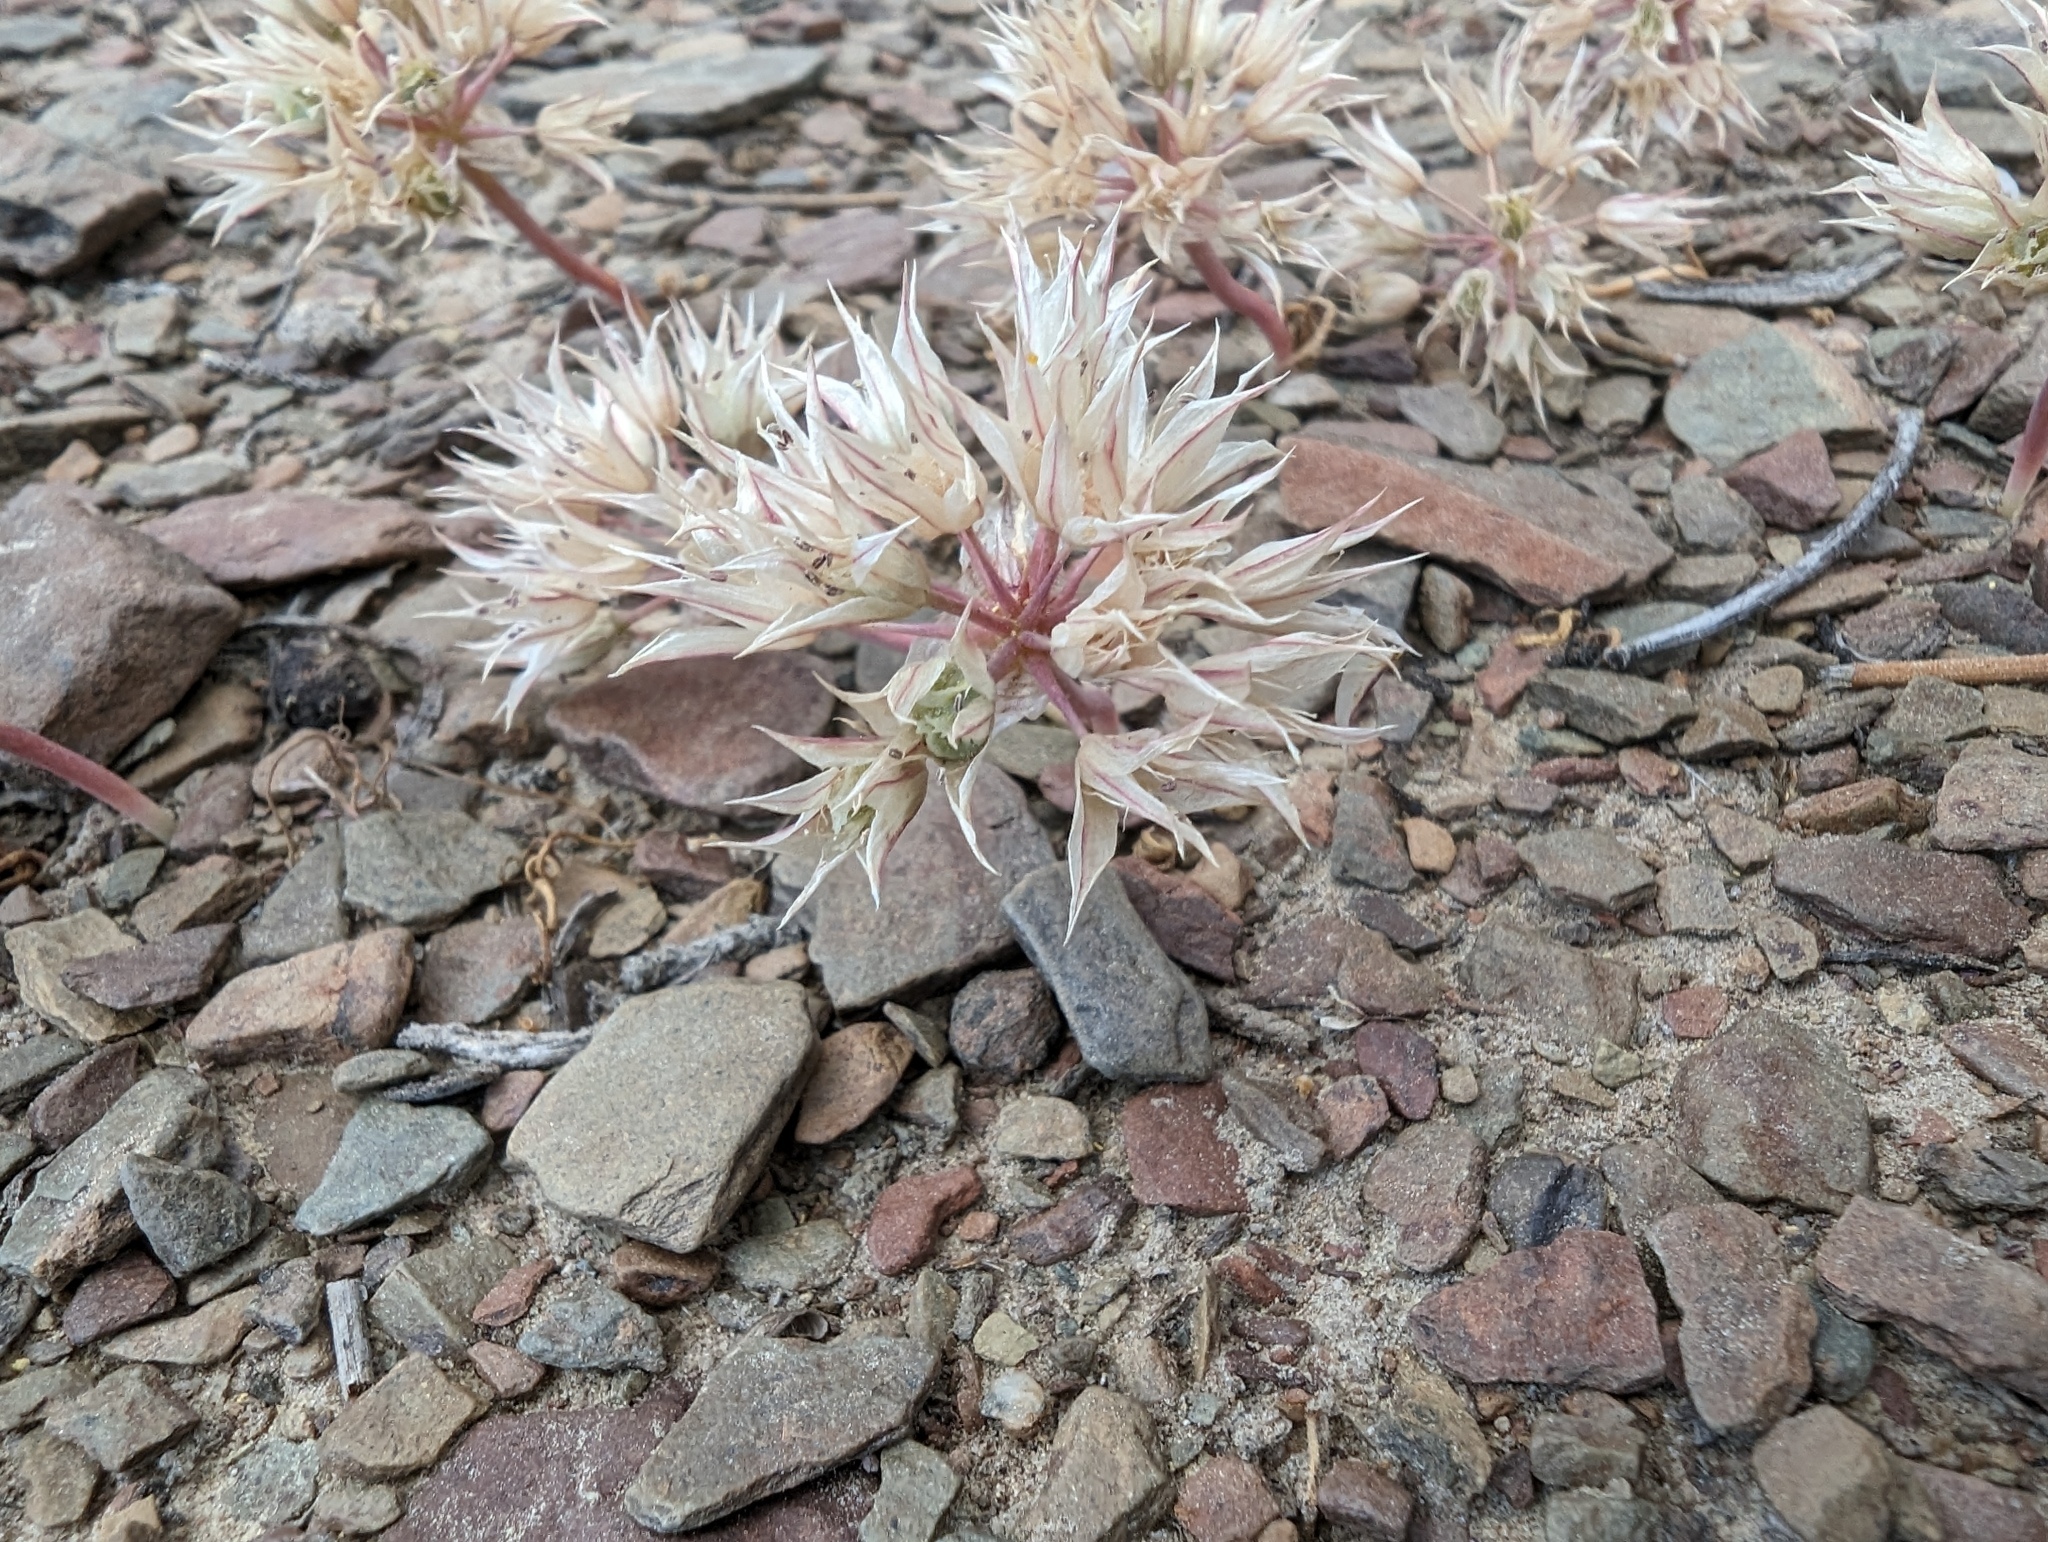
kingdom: Plantae
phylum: Tracheophyta
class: Liliopsida
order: Asparagales
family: Amaryllidaceae
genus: Allium
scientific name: Allium atrorubens
